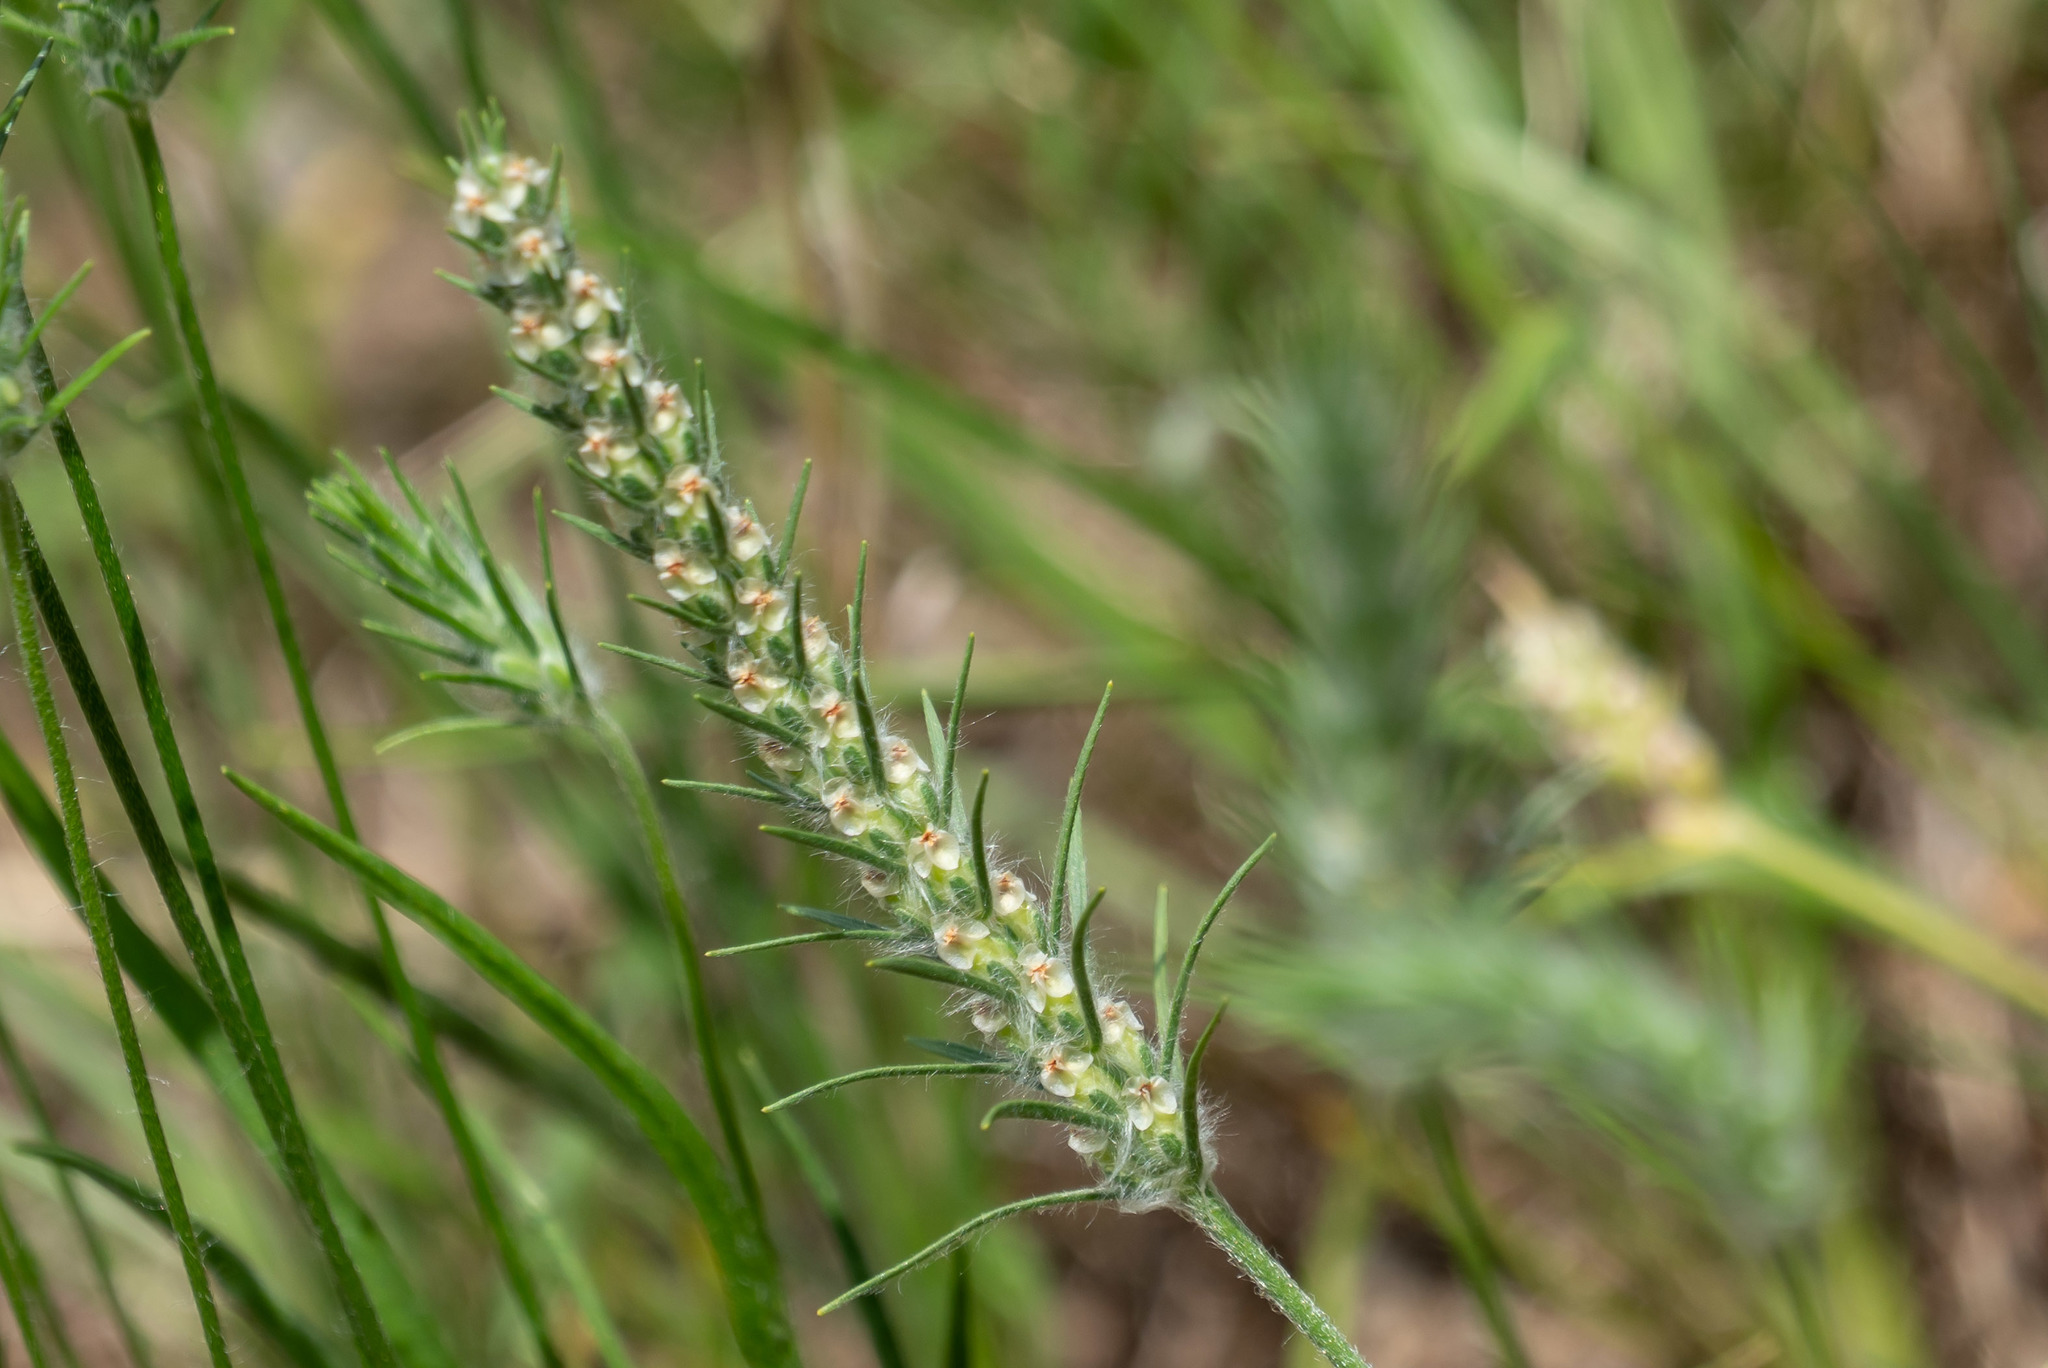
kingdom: Plantae
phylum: Tracheophyta
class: Magnoliopsida
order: Lamiales
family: Plantaginaceae
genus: Plantago
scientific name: Plantago aristata
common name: Bracted plantain
